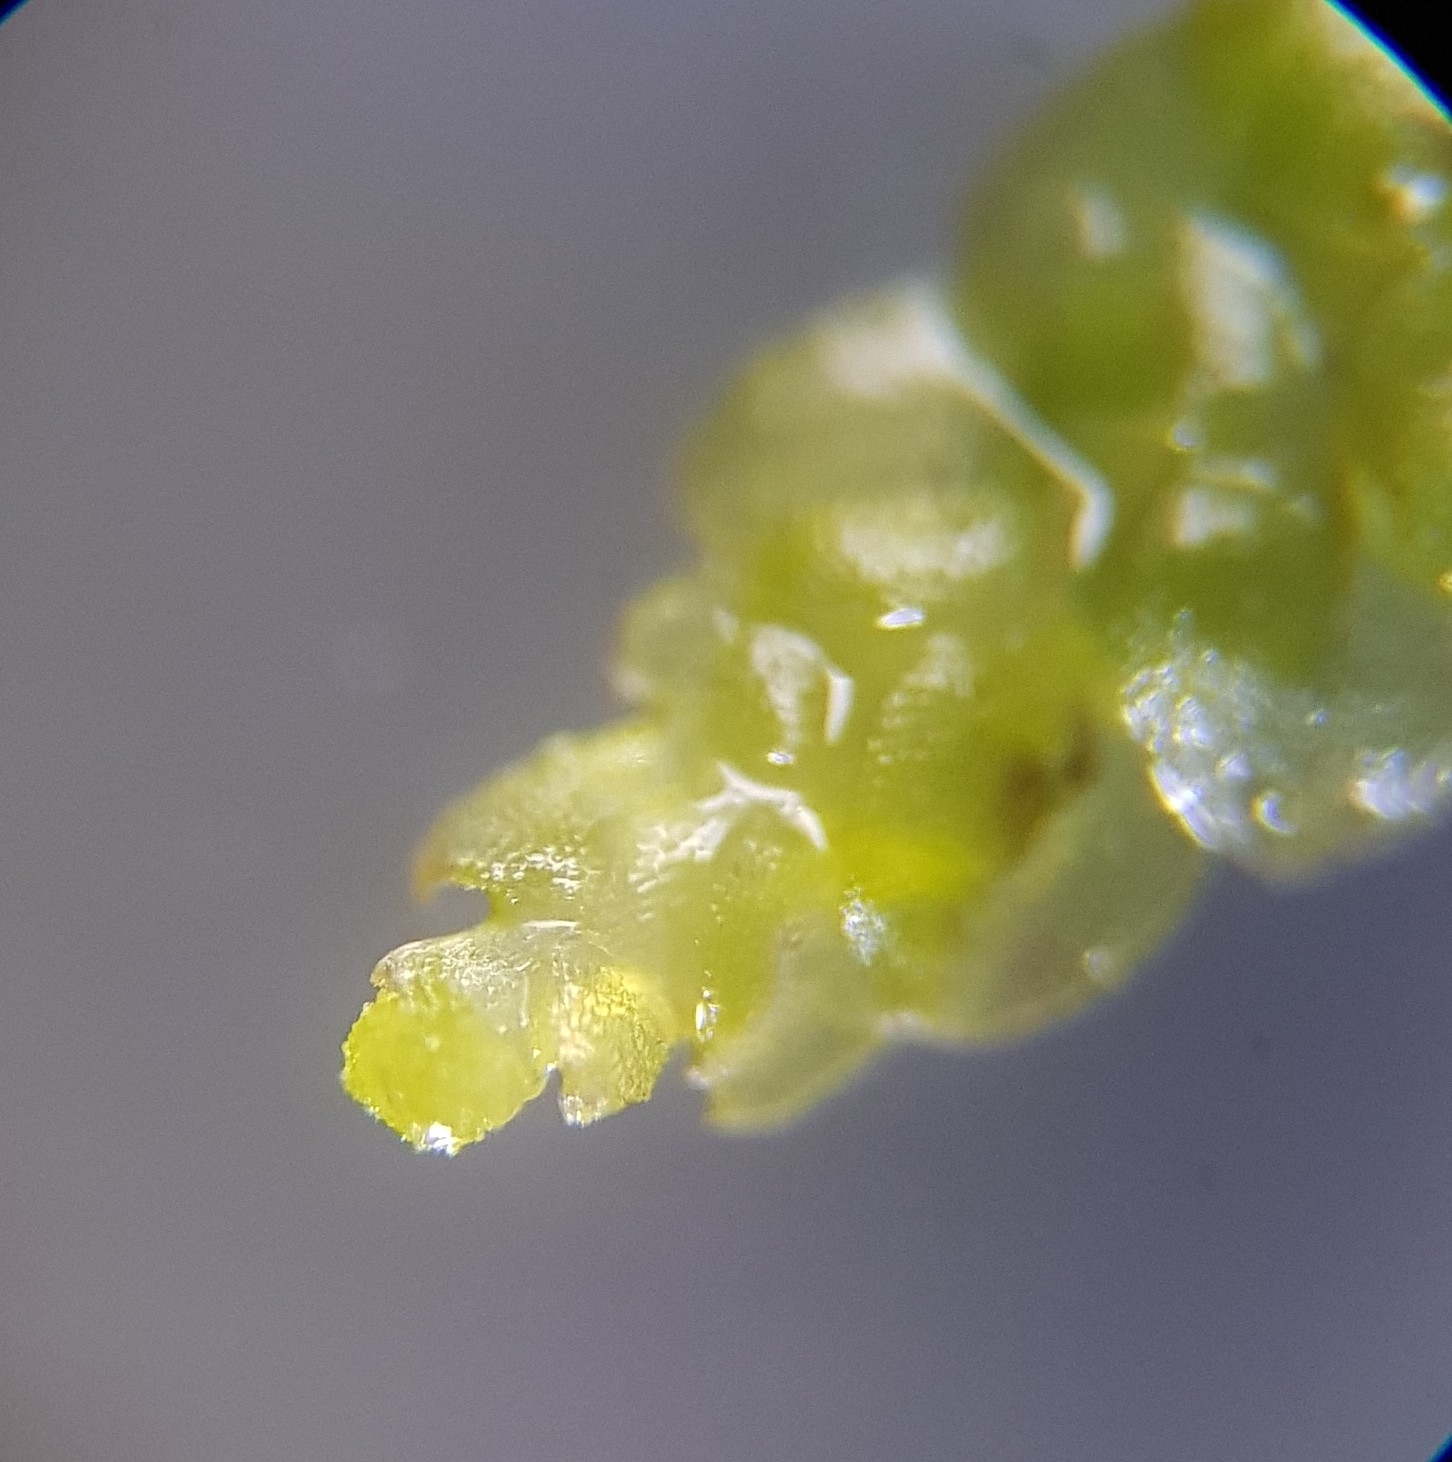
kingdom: Plantae
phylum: Marchantiophyta
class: Jungermanniopsida
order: Jungermanniales
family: Calypogeiaceae
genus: Calypogeia
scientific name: Calypogeia muelleriana
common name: Mueller s pouchwort
